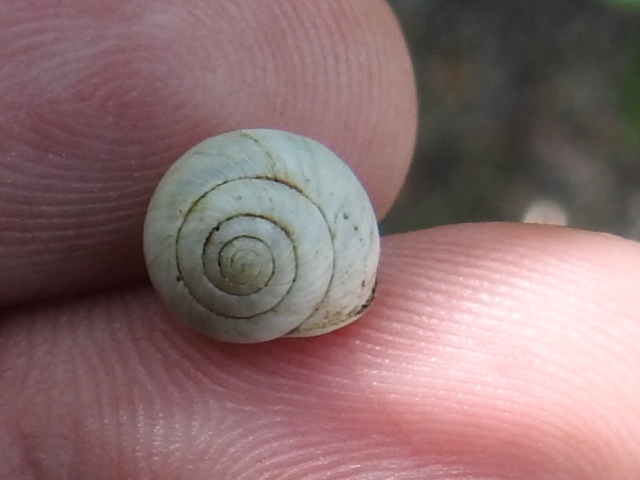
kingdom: Animalia
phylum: Mollusca
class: Gastropoda
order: Cycloneritida
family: Helicinidae
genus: Helicina
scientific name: Helicina orbiculata
